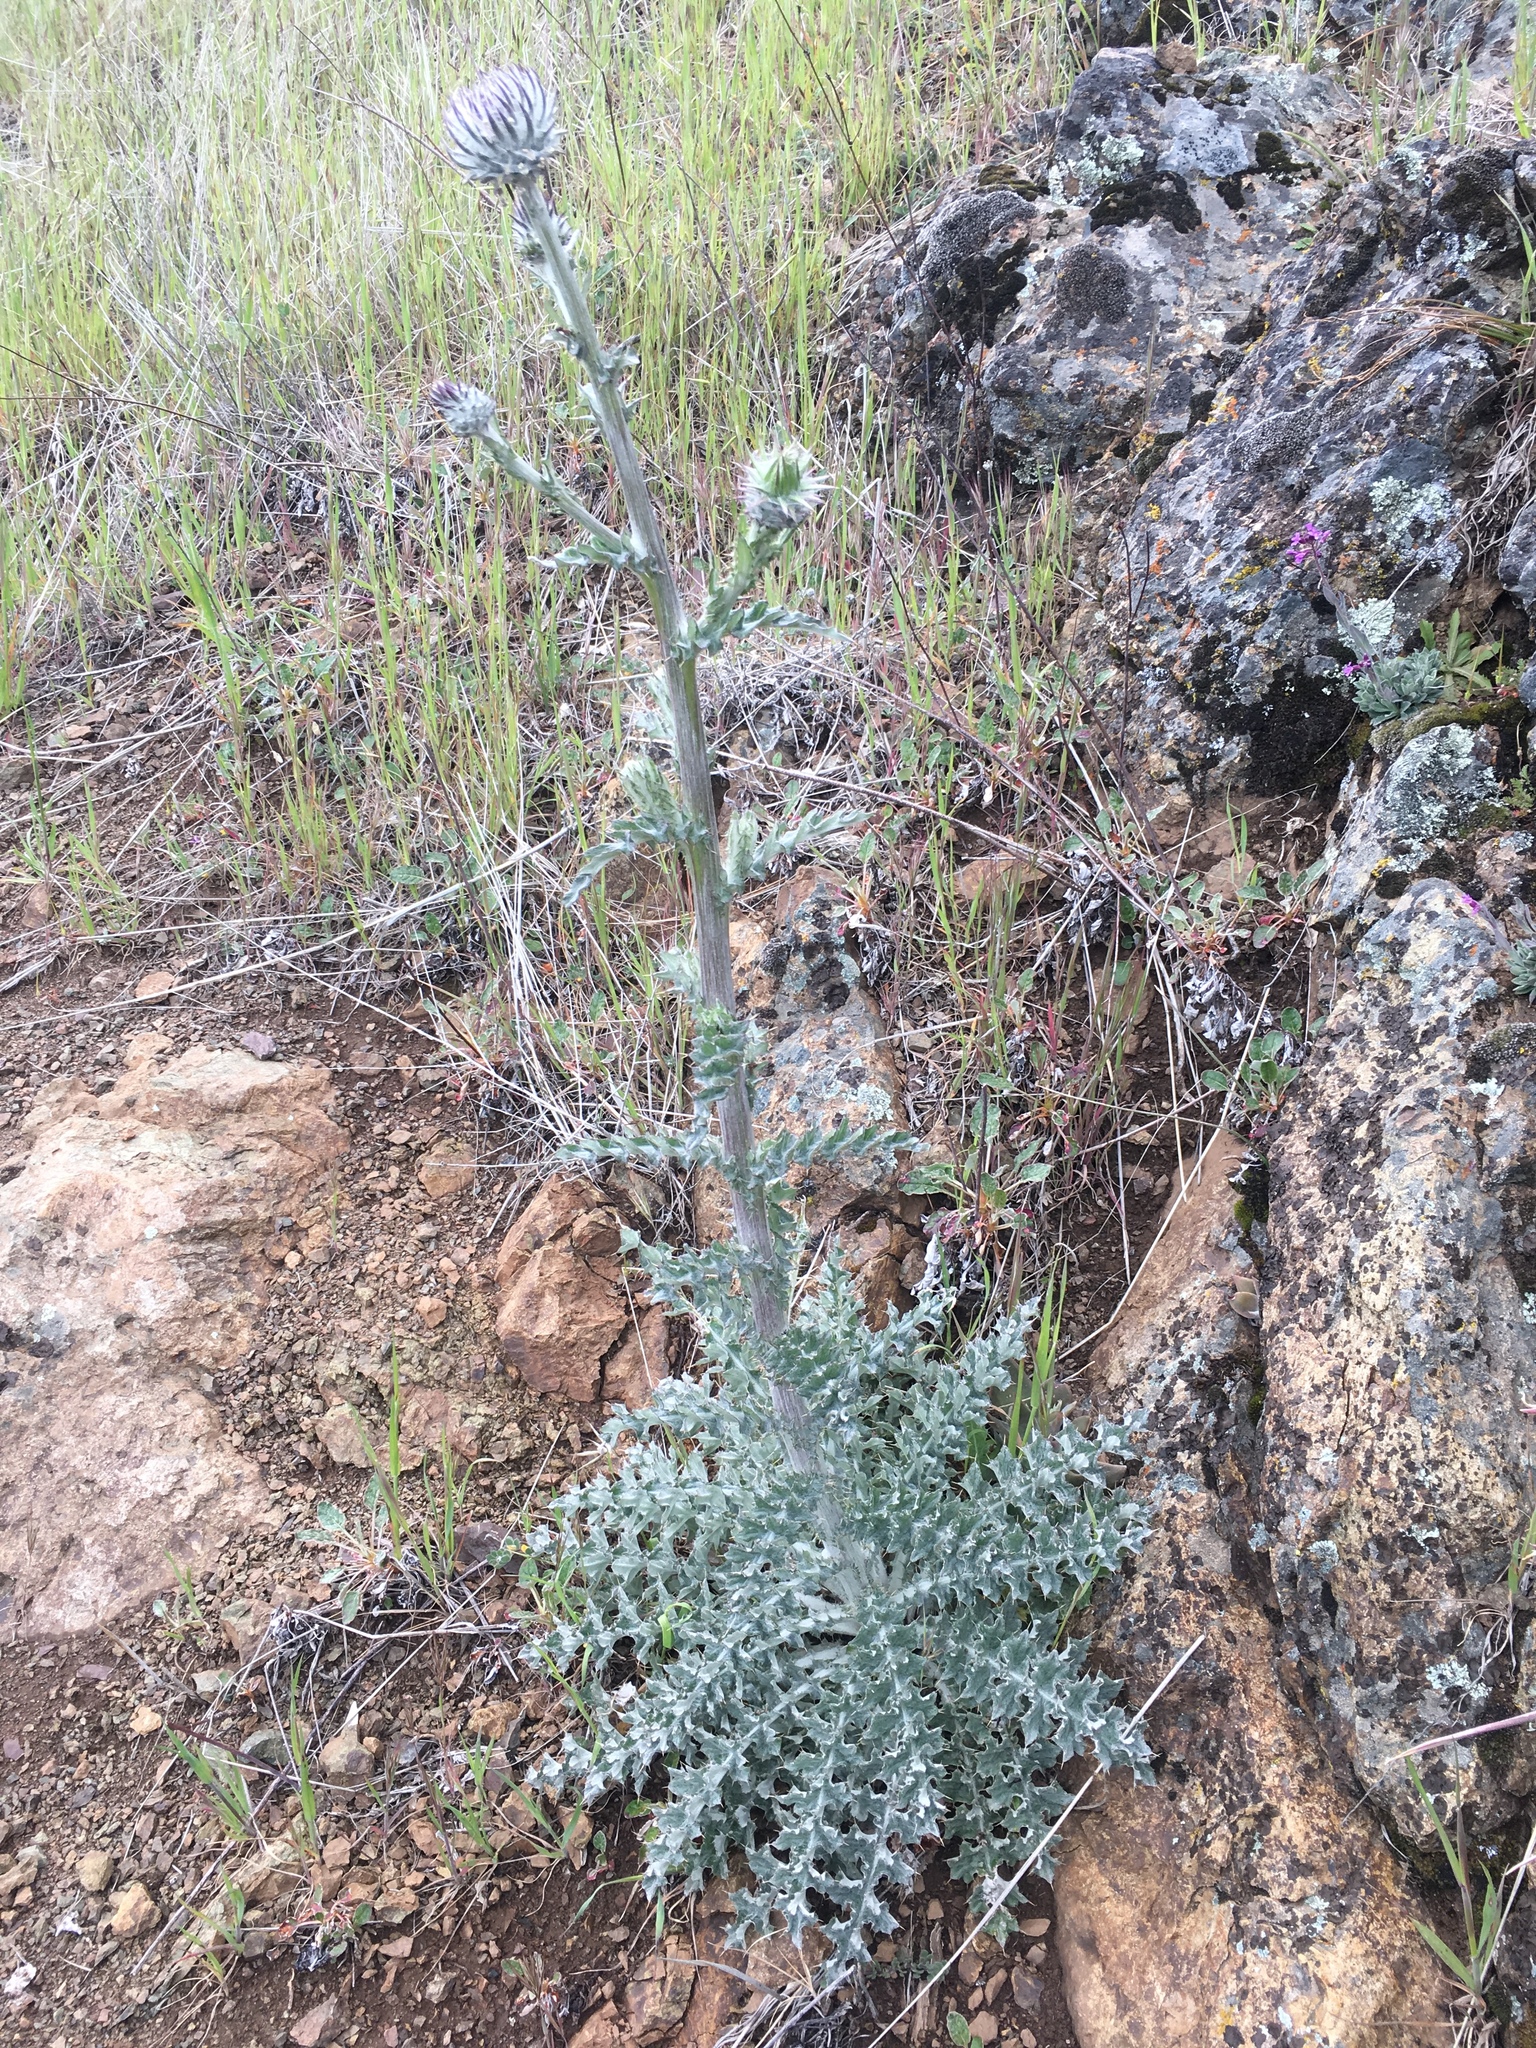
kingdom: Plantae
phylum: Tracheophyta
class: Magnoliopsida
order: Asterales
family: Asteraceae
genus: Cirsium
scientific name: Cirsium occidentale
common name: Western thistle
